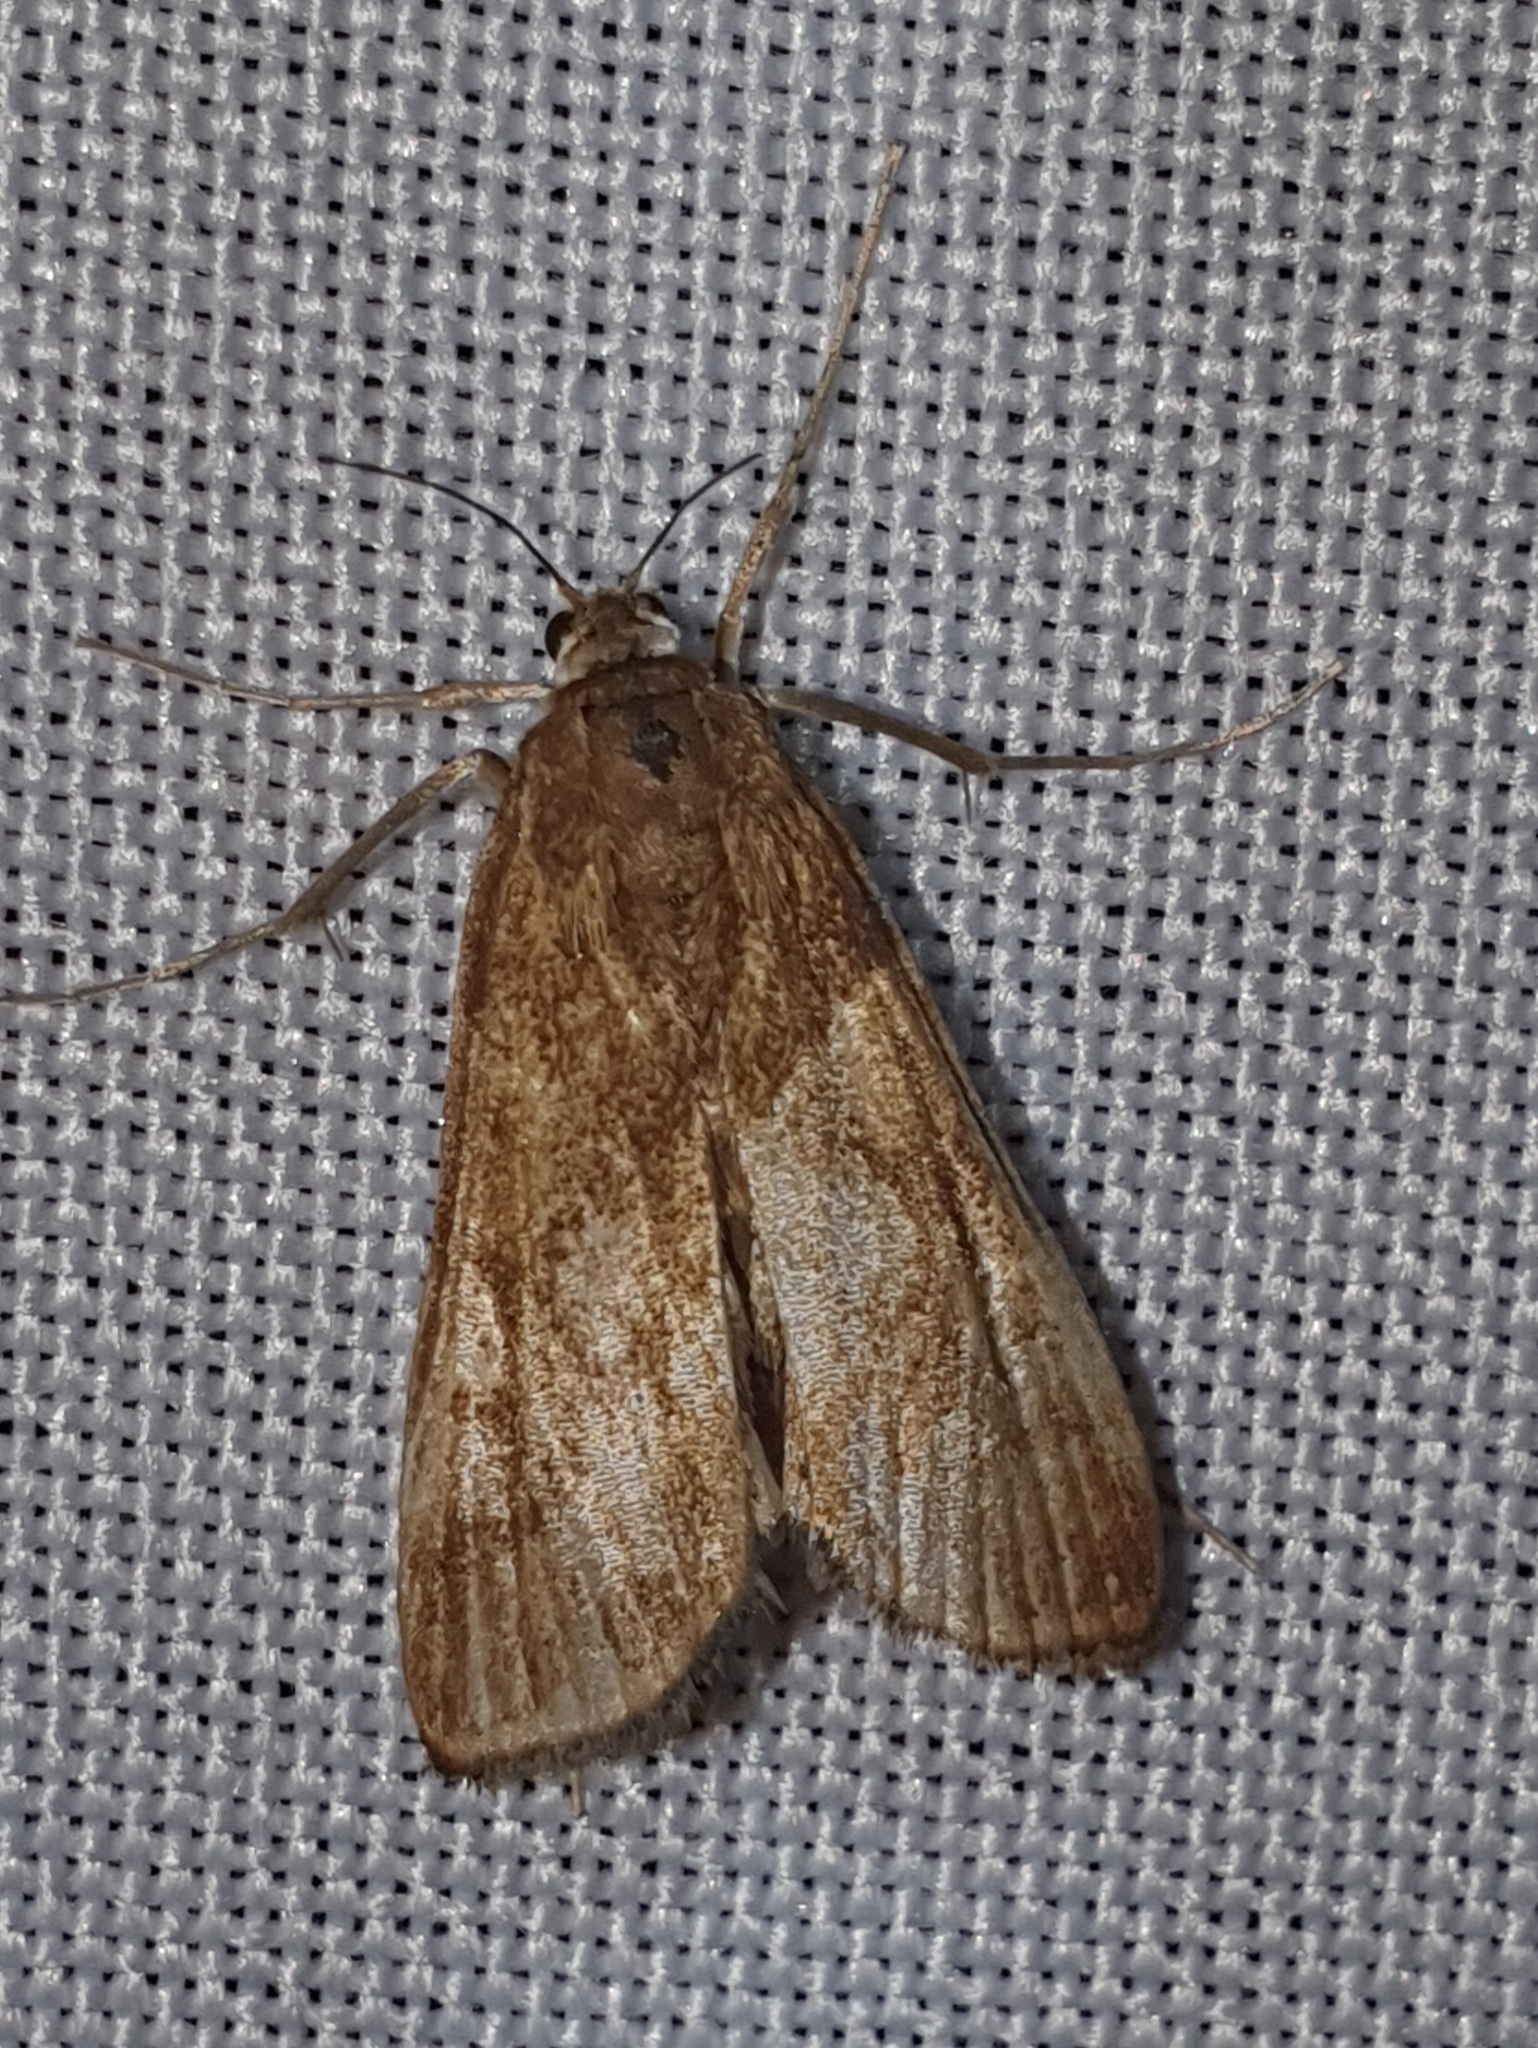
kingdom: Animalia
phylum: Arthropoda
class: Insecta
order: Lepidoptera
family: Crambidae
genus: Parapoynx
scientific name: Parapoynx stratiotata
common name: Ringed china-mark
